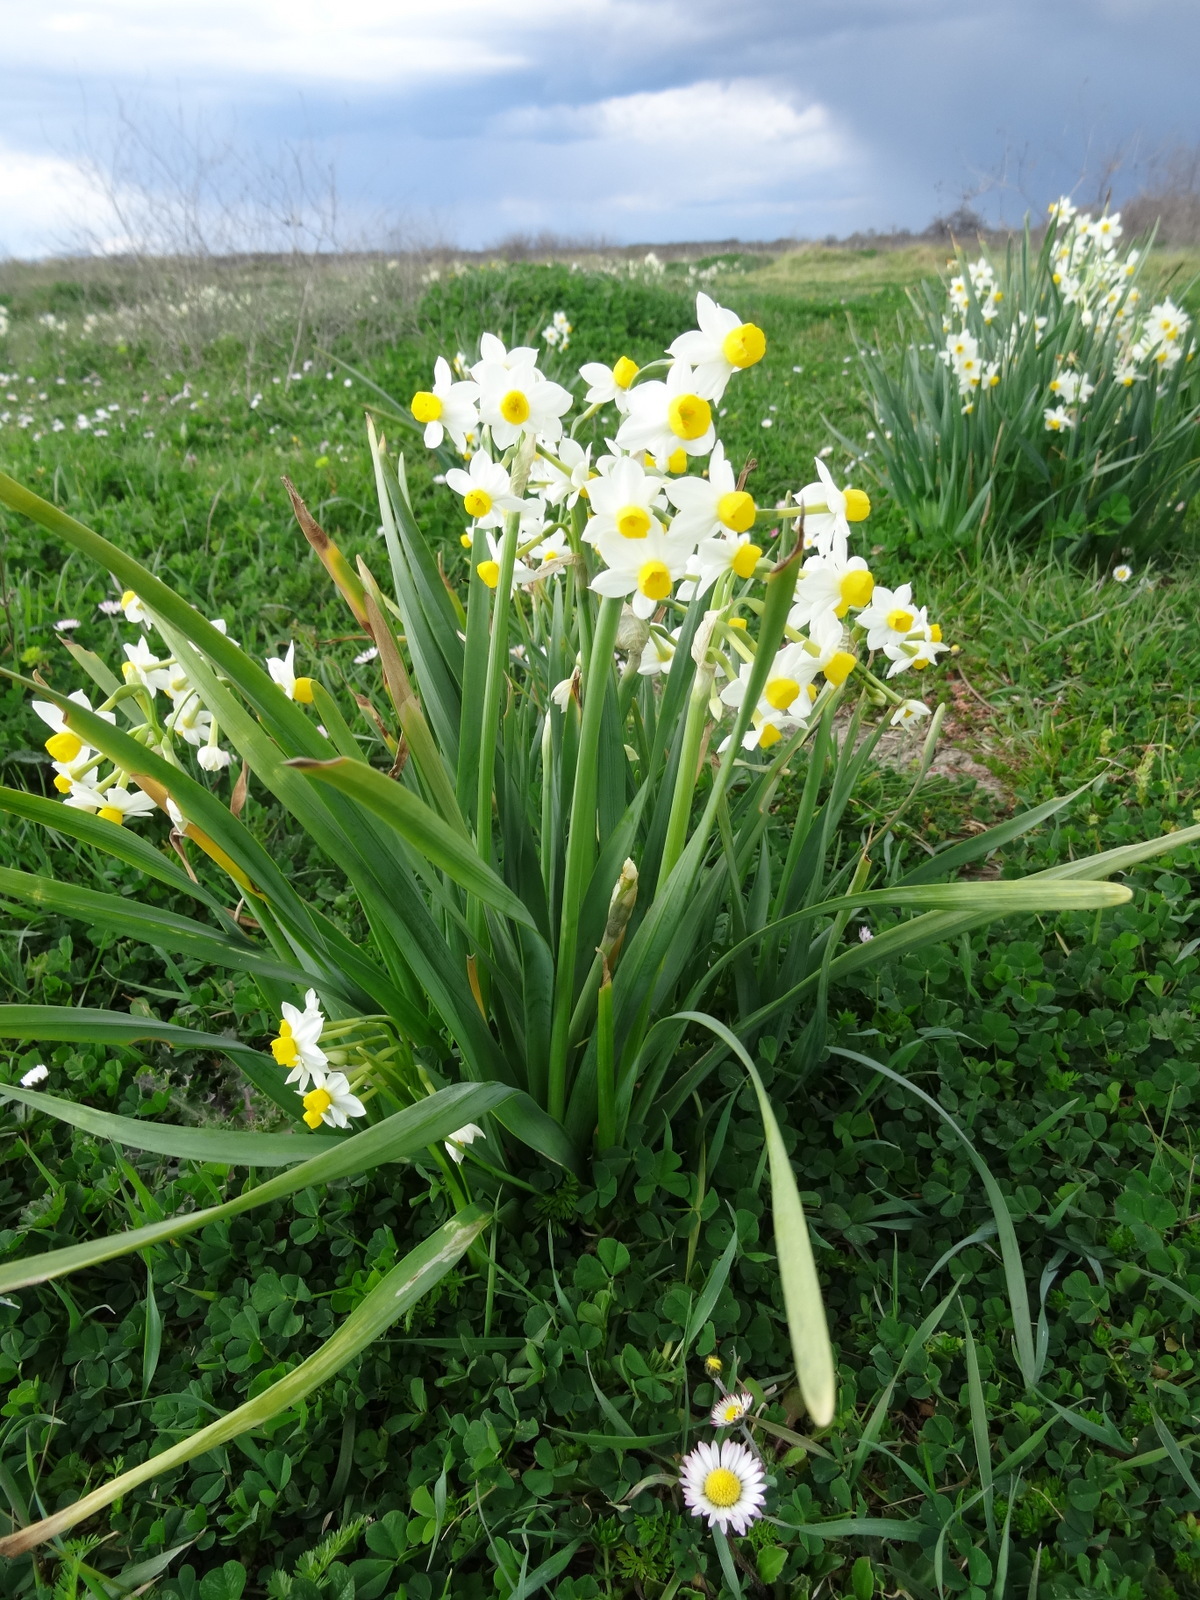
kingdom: Plantae
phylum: Tracheophyta
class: Liliopsida
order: Asparagales
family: Amaryllidaceae
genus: Narcissus
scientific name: Narcissus tazetta
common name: Bunch-flowered daffodil
